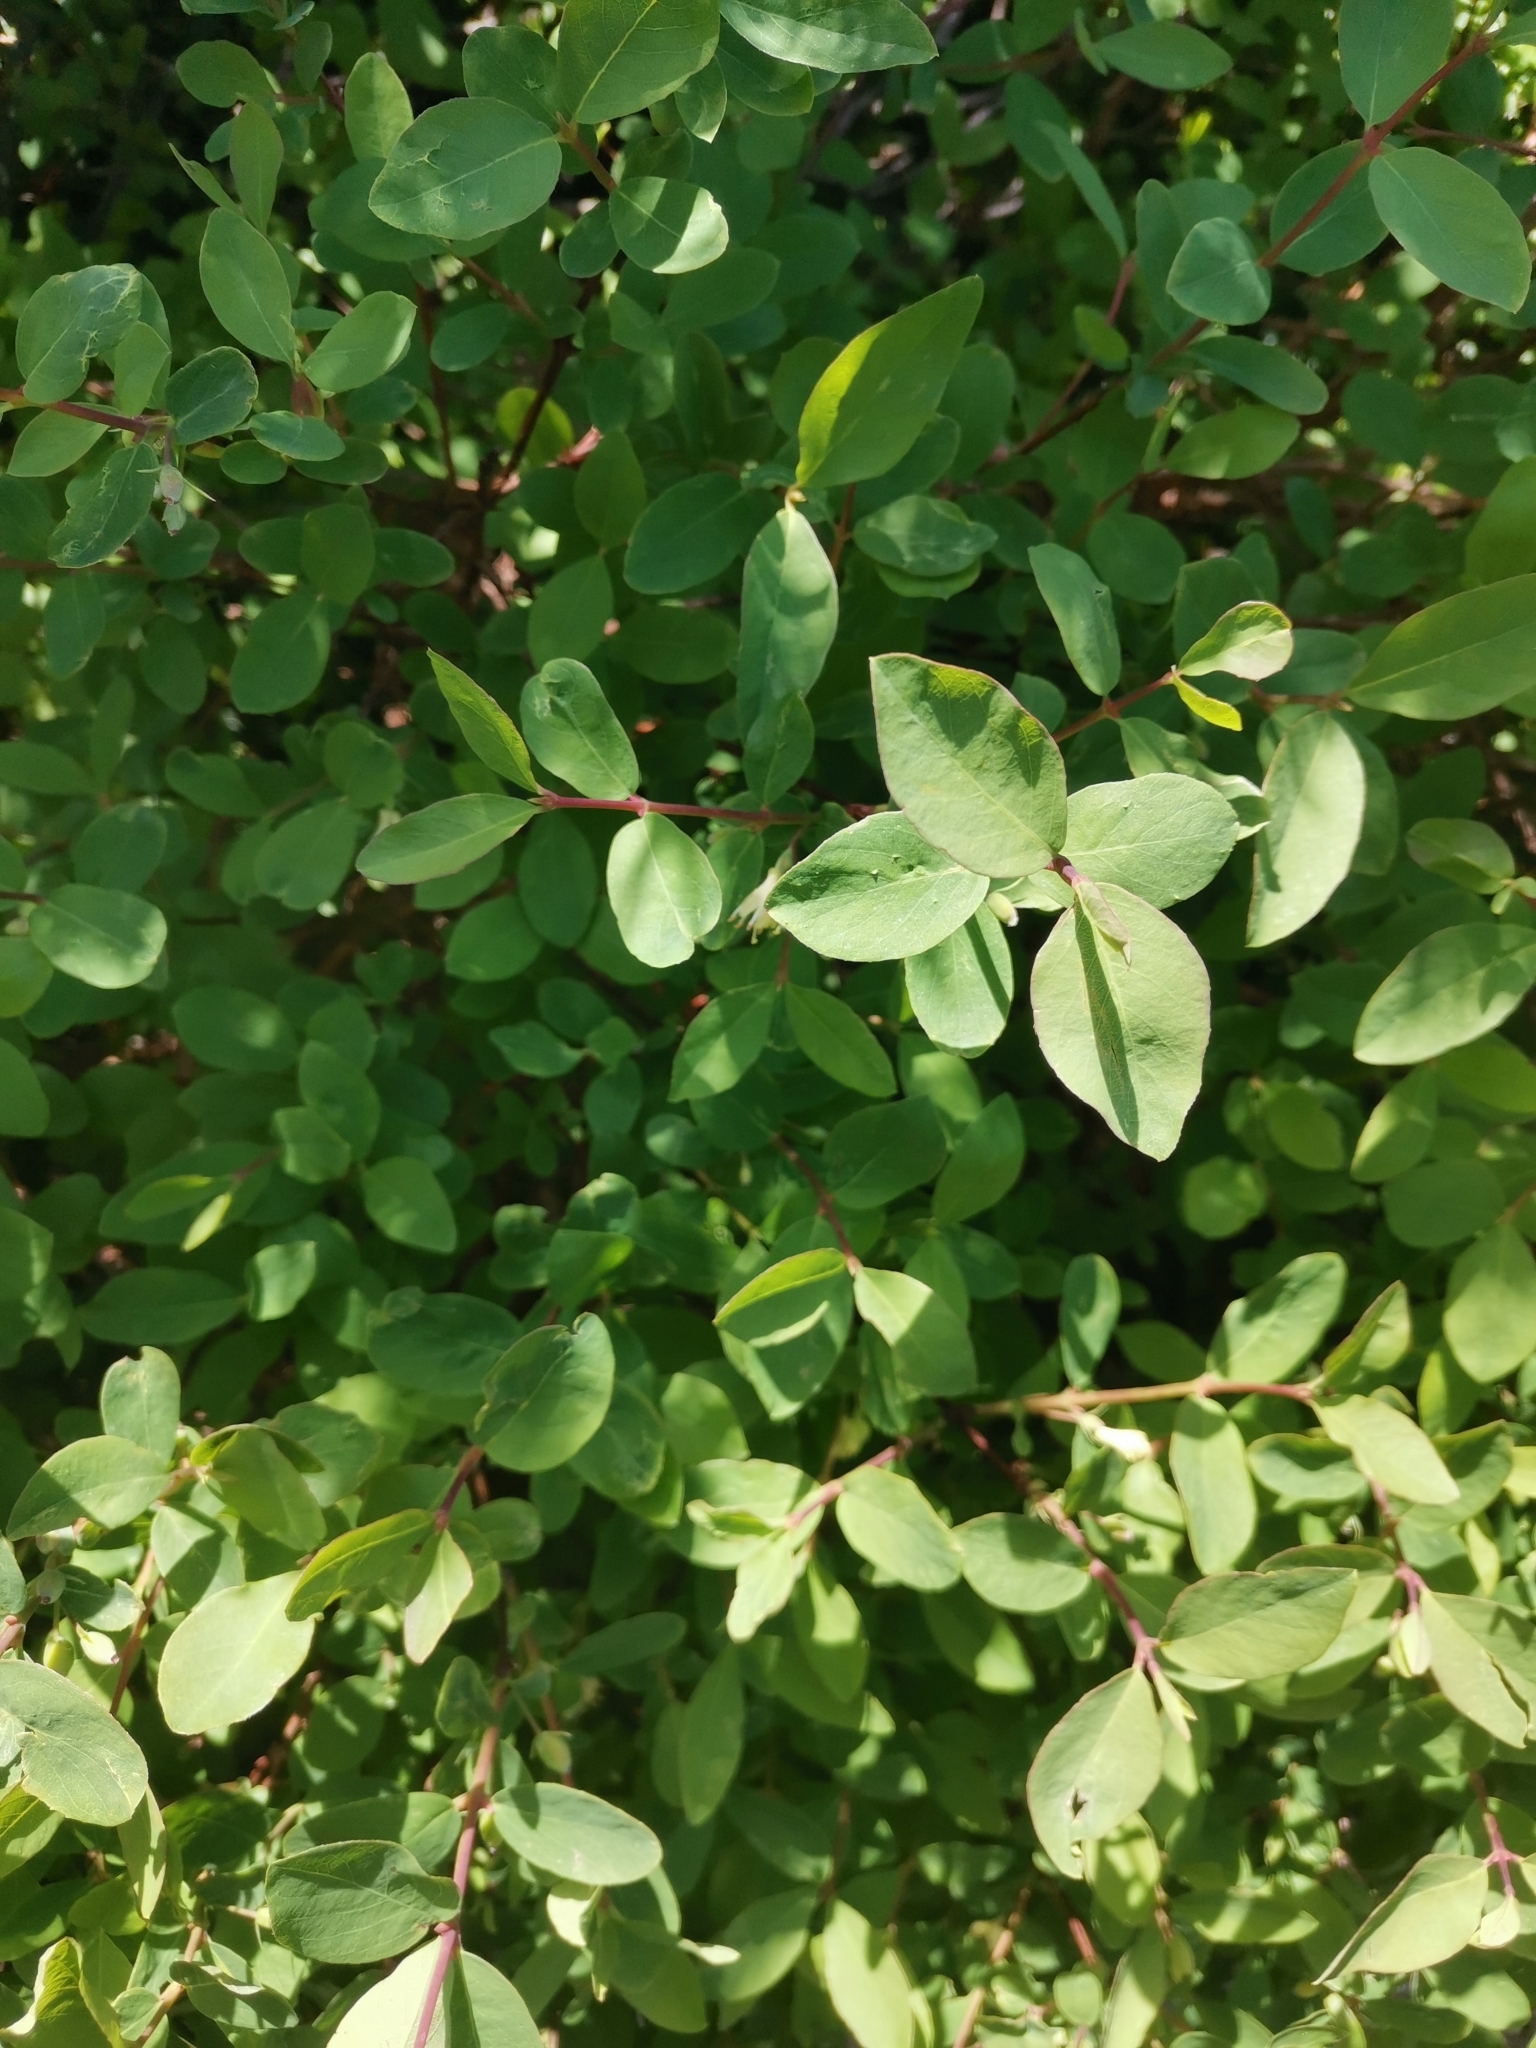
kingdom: Plantae
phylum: Tracheophyta
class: Magnoliopsida
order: Dipsacales
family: Caprifoliaceae
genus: Lonicera
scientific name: Lonicera caerulea
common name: Blue honeysuckle
